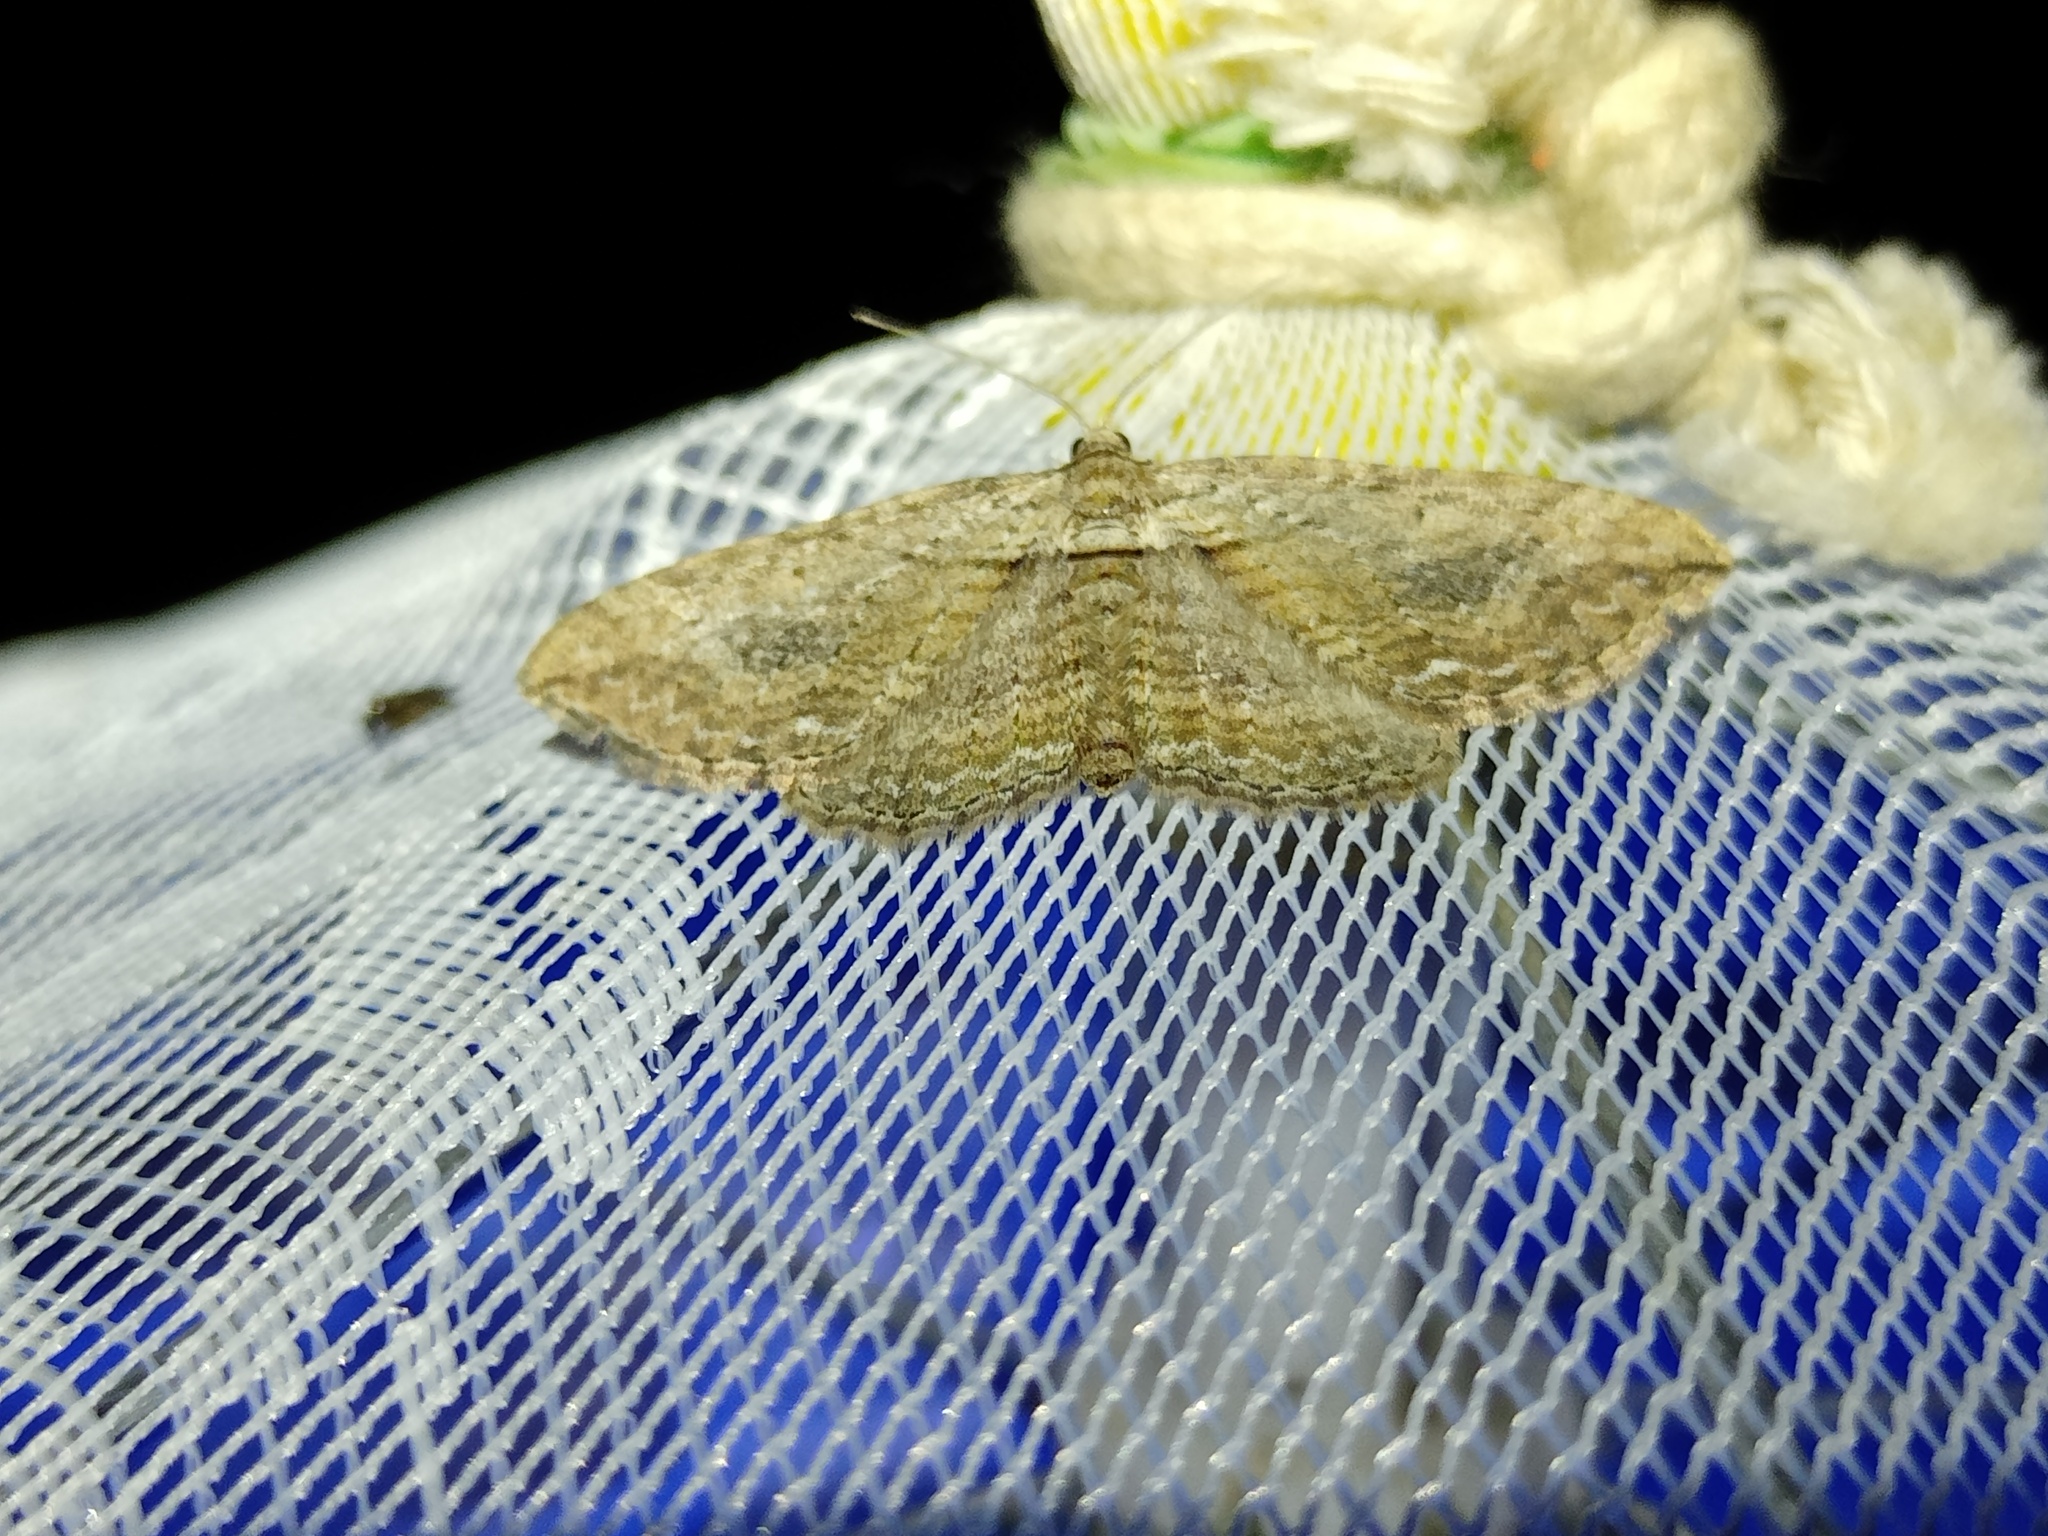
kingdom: Animalia
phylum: Arthropoda
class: Insecta
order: Lepidoptera
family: Geometridae
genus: Horisme
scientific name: Horisme tersata
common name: Fern
